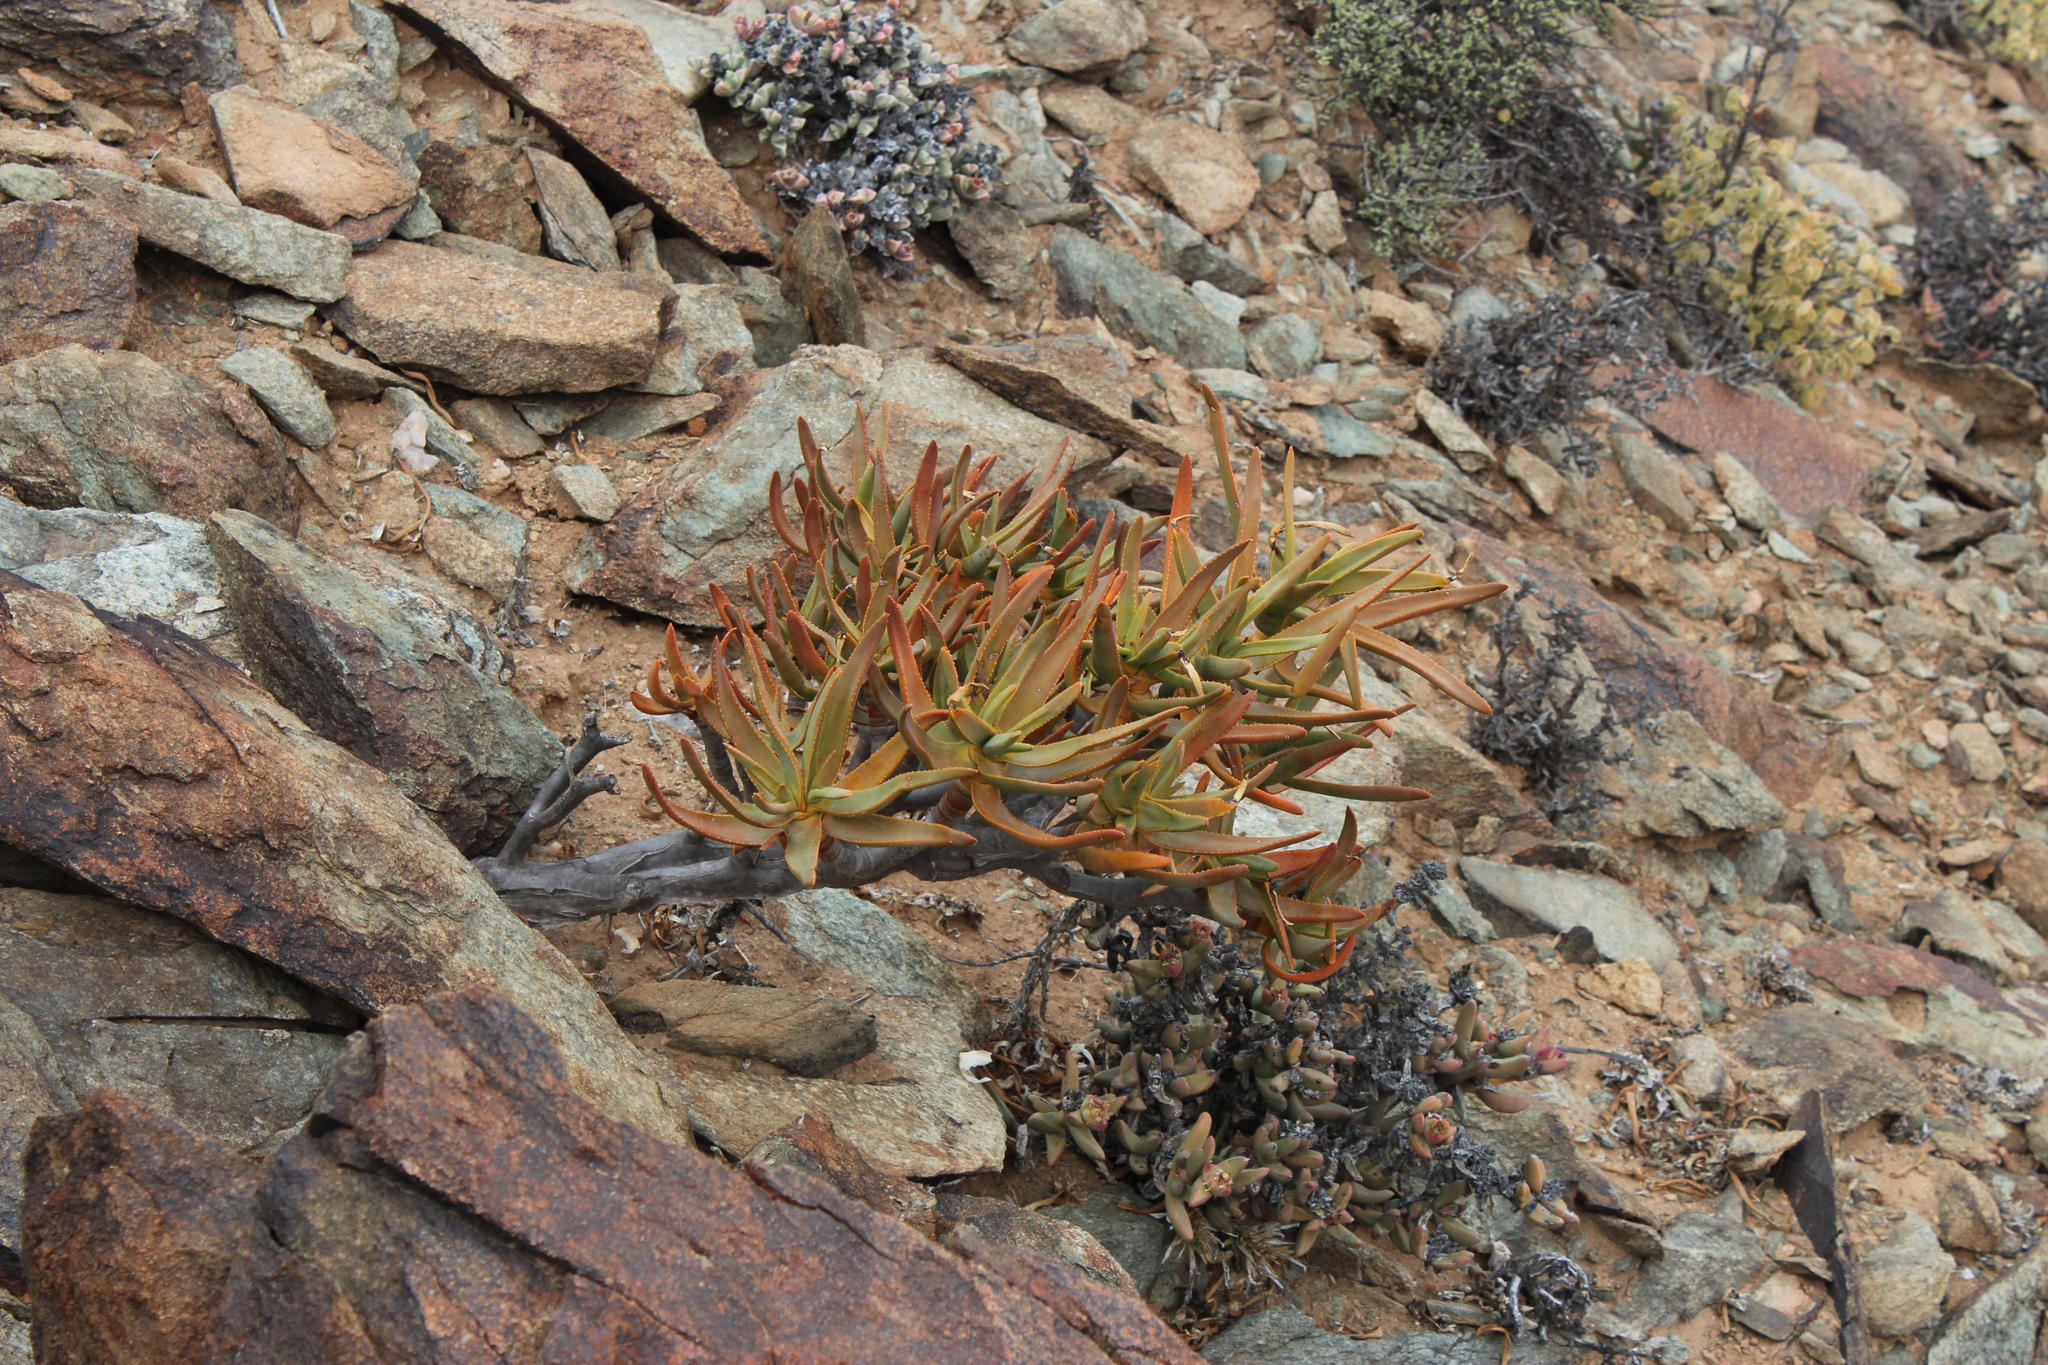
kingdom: Plantae
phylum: Tracheophyta
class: Liliopsida
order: Asparagales
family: Asphodelaceae
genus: Aloidendron
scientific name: Aloidendron ramosissimum
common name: Bush quiver tree
